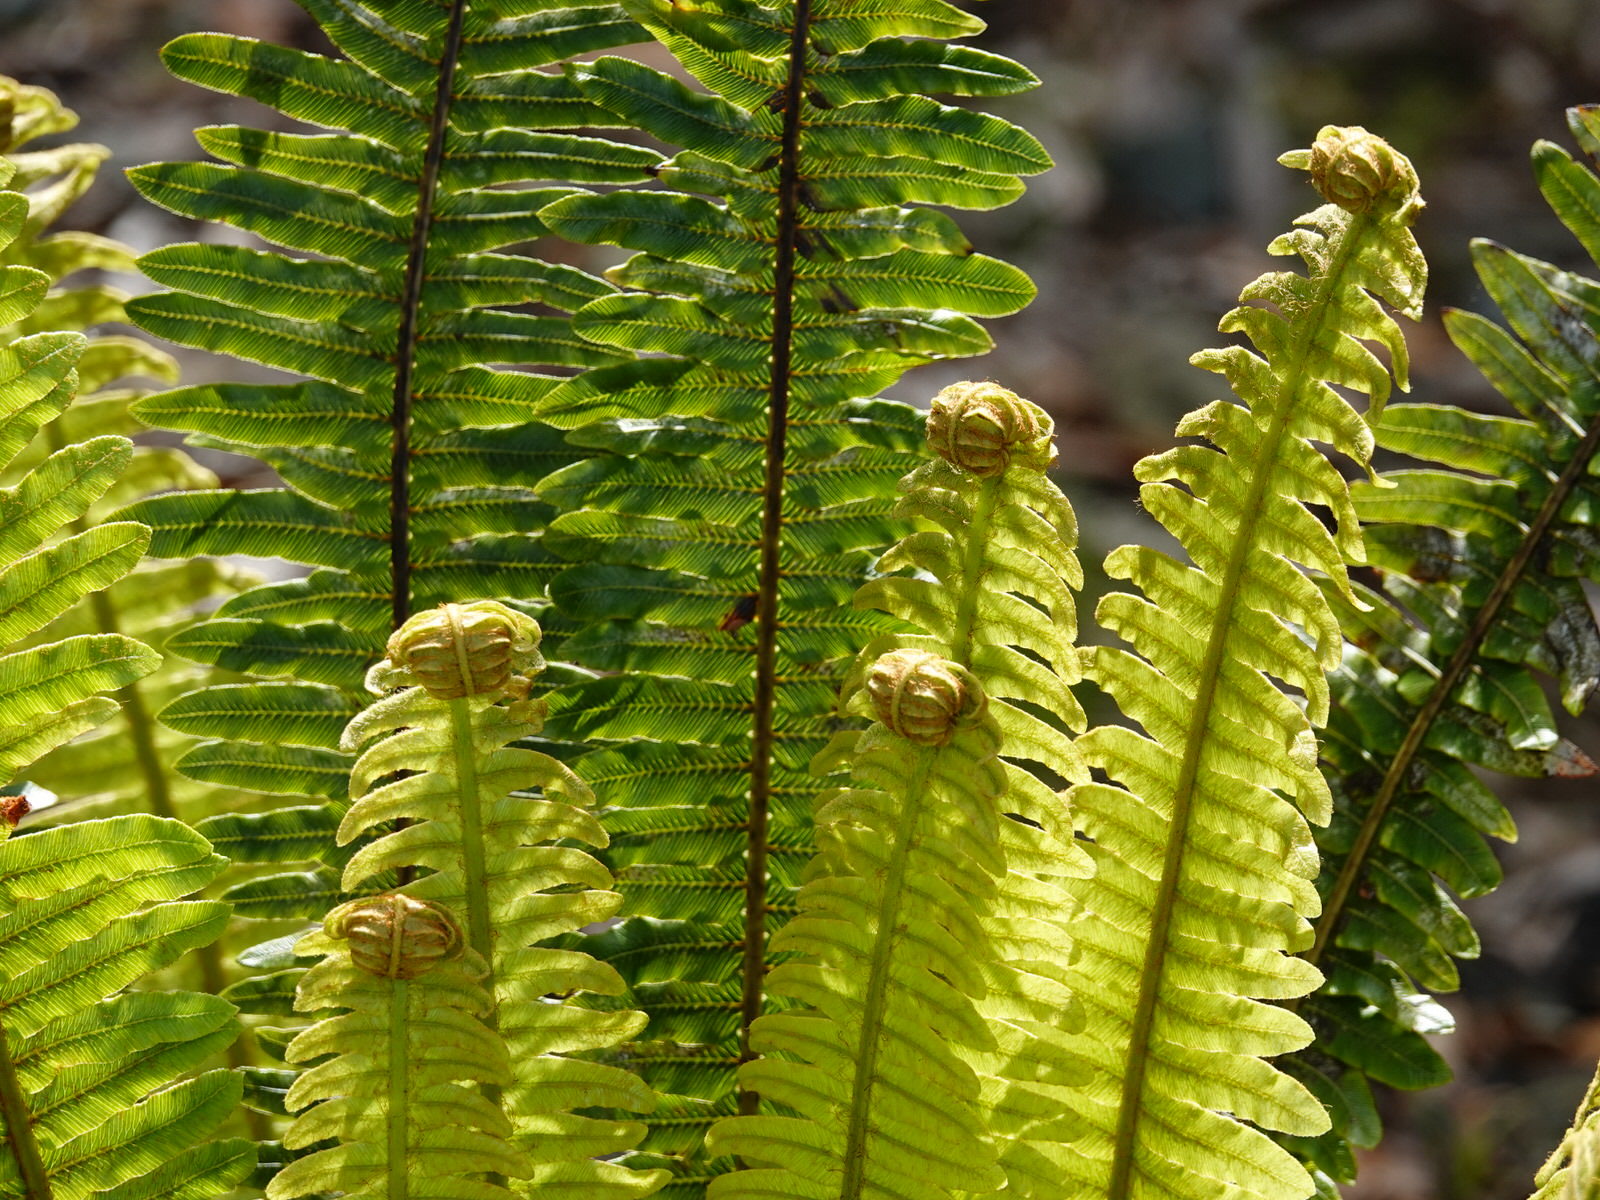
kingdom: Plantae
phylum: Tracheophyta
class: Polypodiopsida
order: Polypodiales
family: Blechnaceae
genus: Lomaria
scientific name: Lomaria discolor
